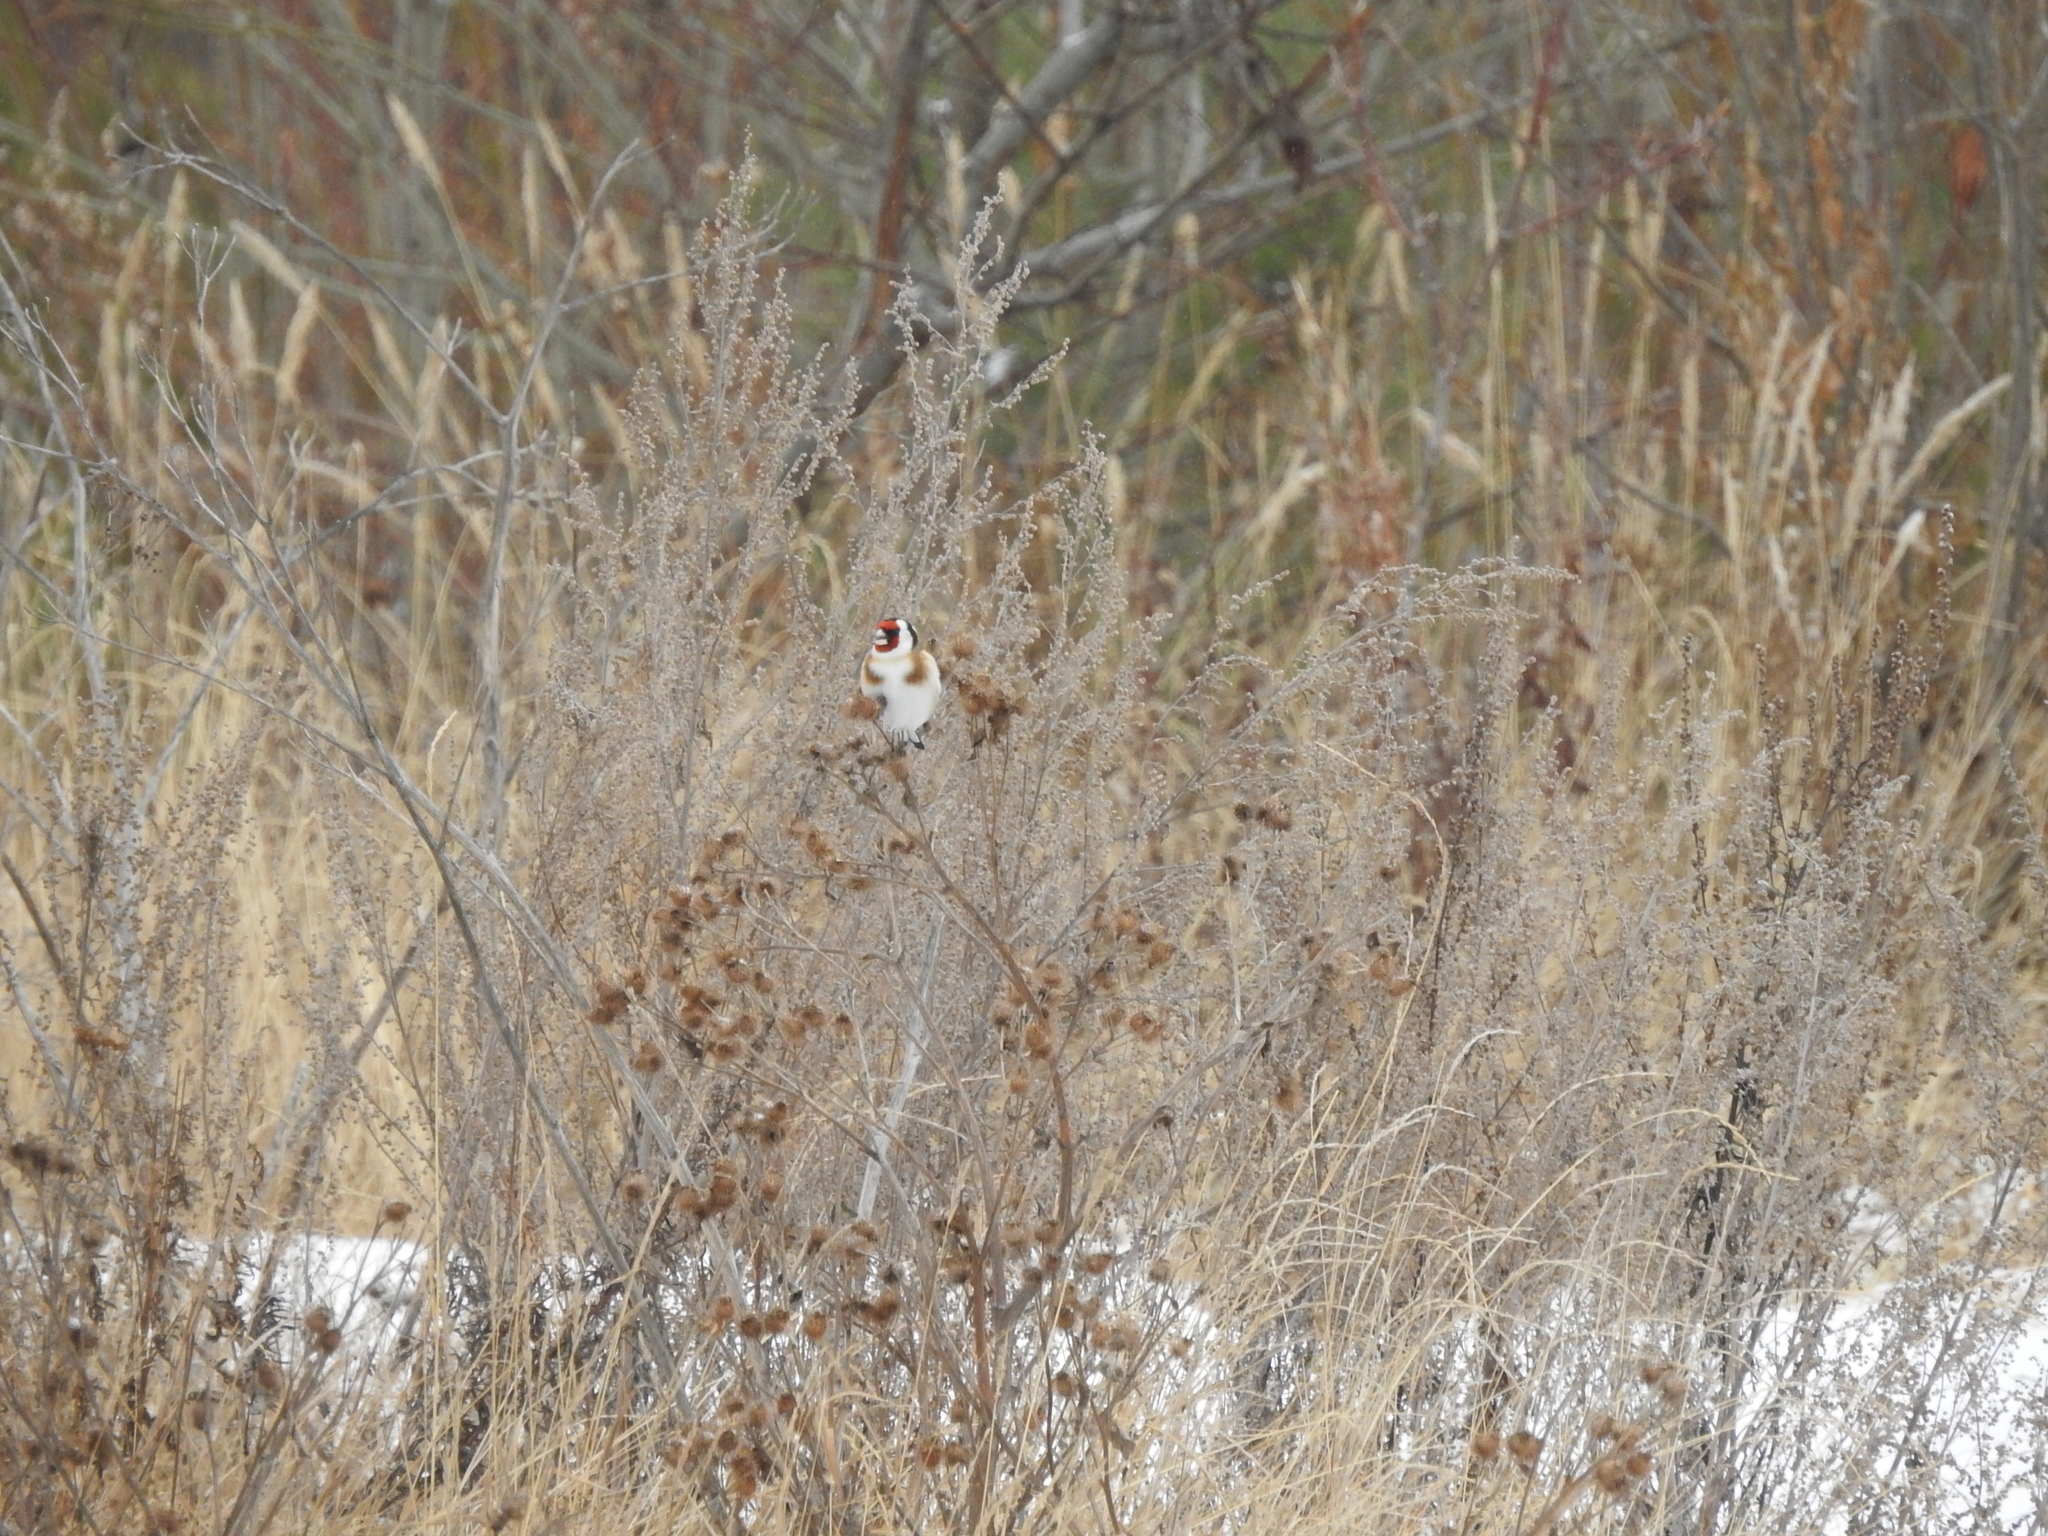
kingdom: Animalia
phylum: Chordata
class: Aves
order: Passeriformes
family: Fringillidae
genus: Carduelis
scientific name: Carduelis carduelis
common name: European goldfinch
